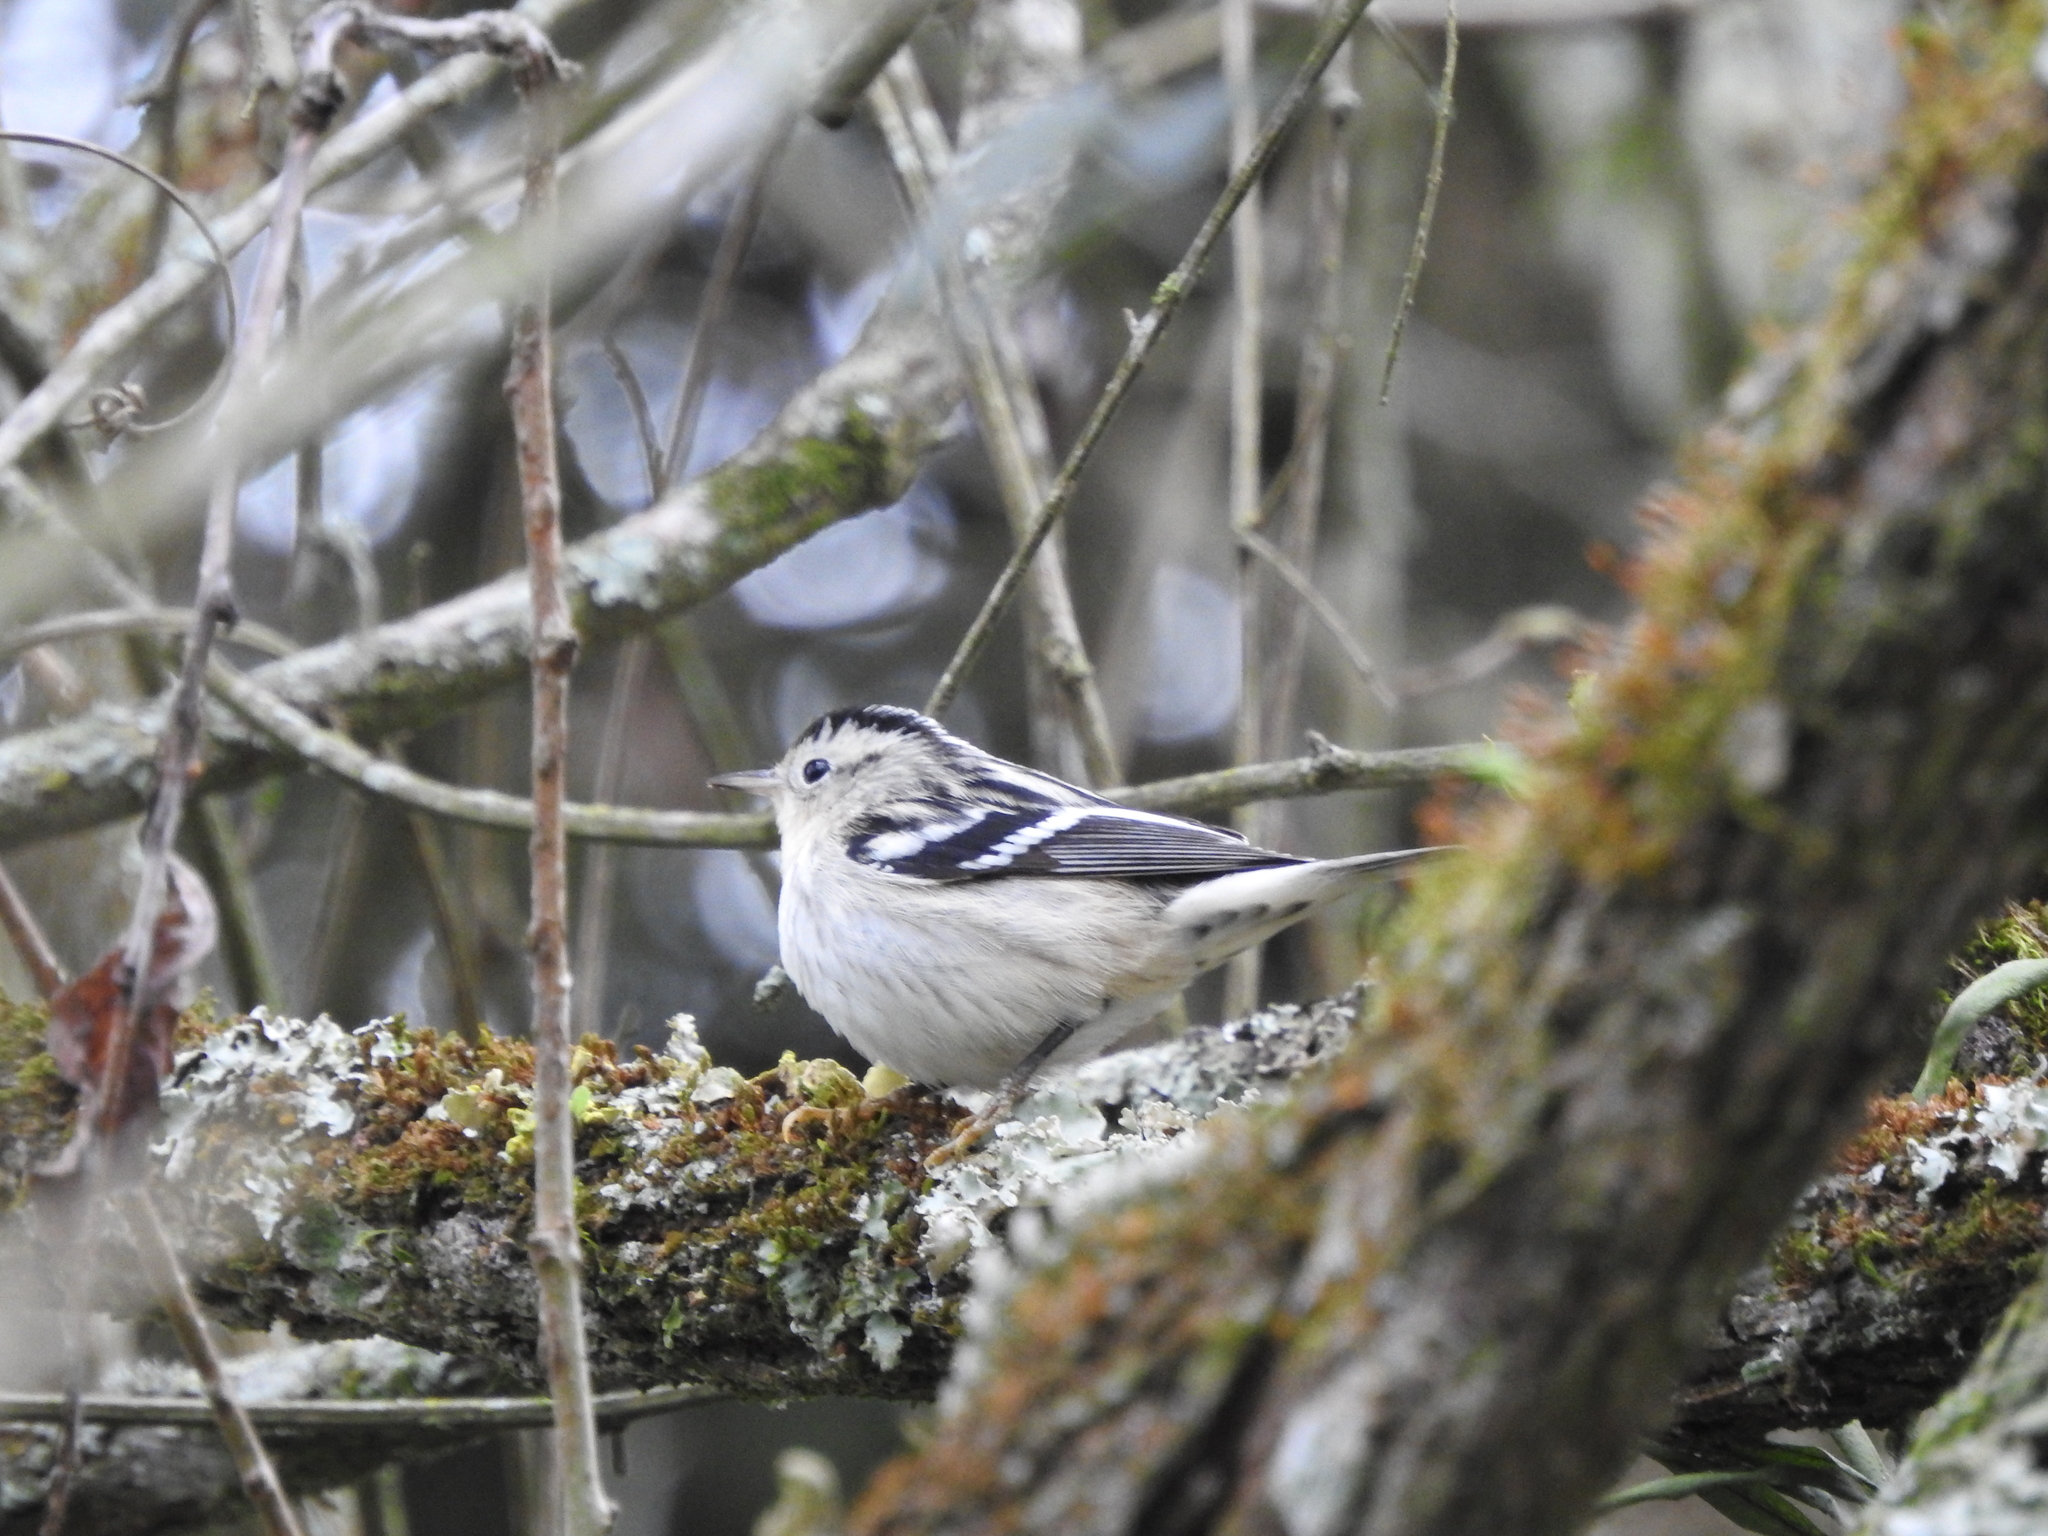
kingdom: Animalia
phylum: Chordata
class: Aves
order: Passeriformes
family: Parulidae
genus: Mniotilta
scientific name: Mniotilta varia
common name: Black-and-white warbler
